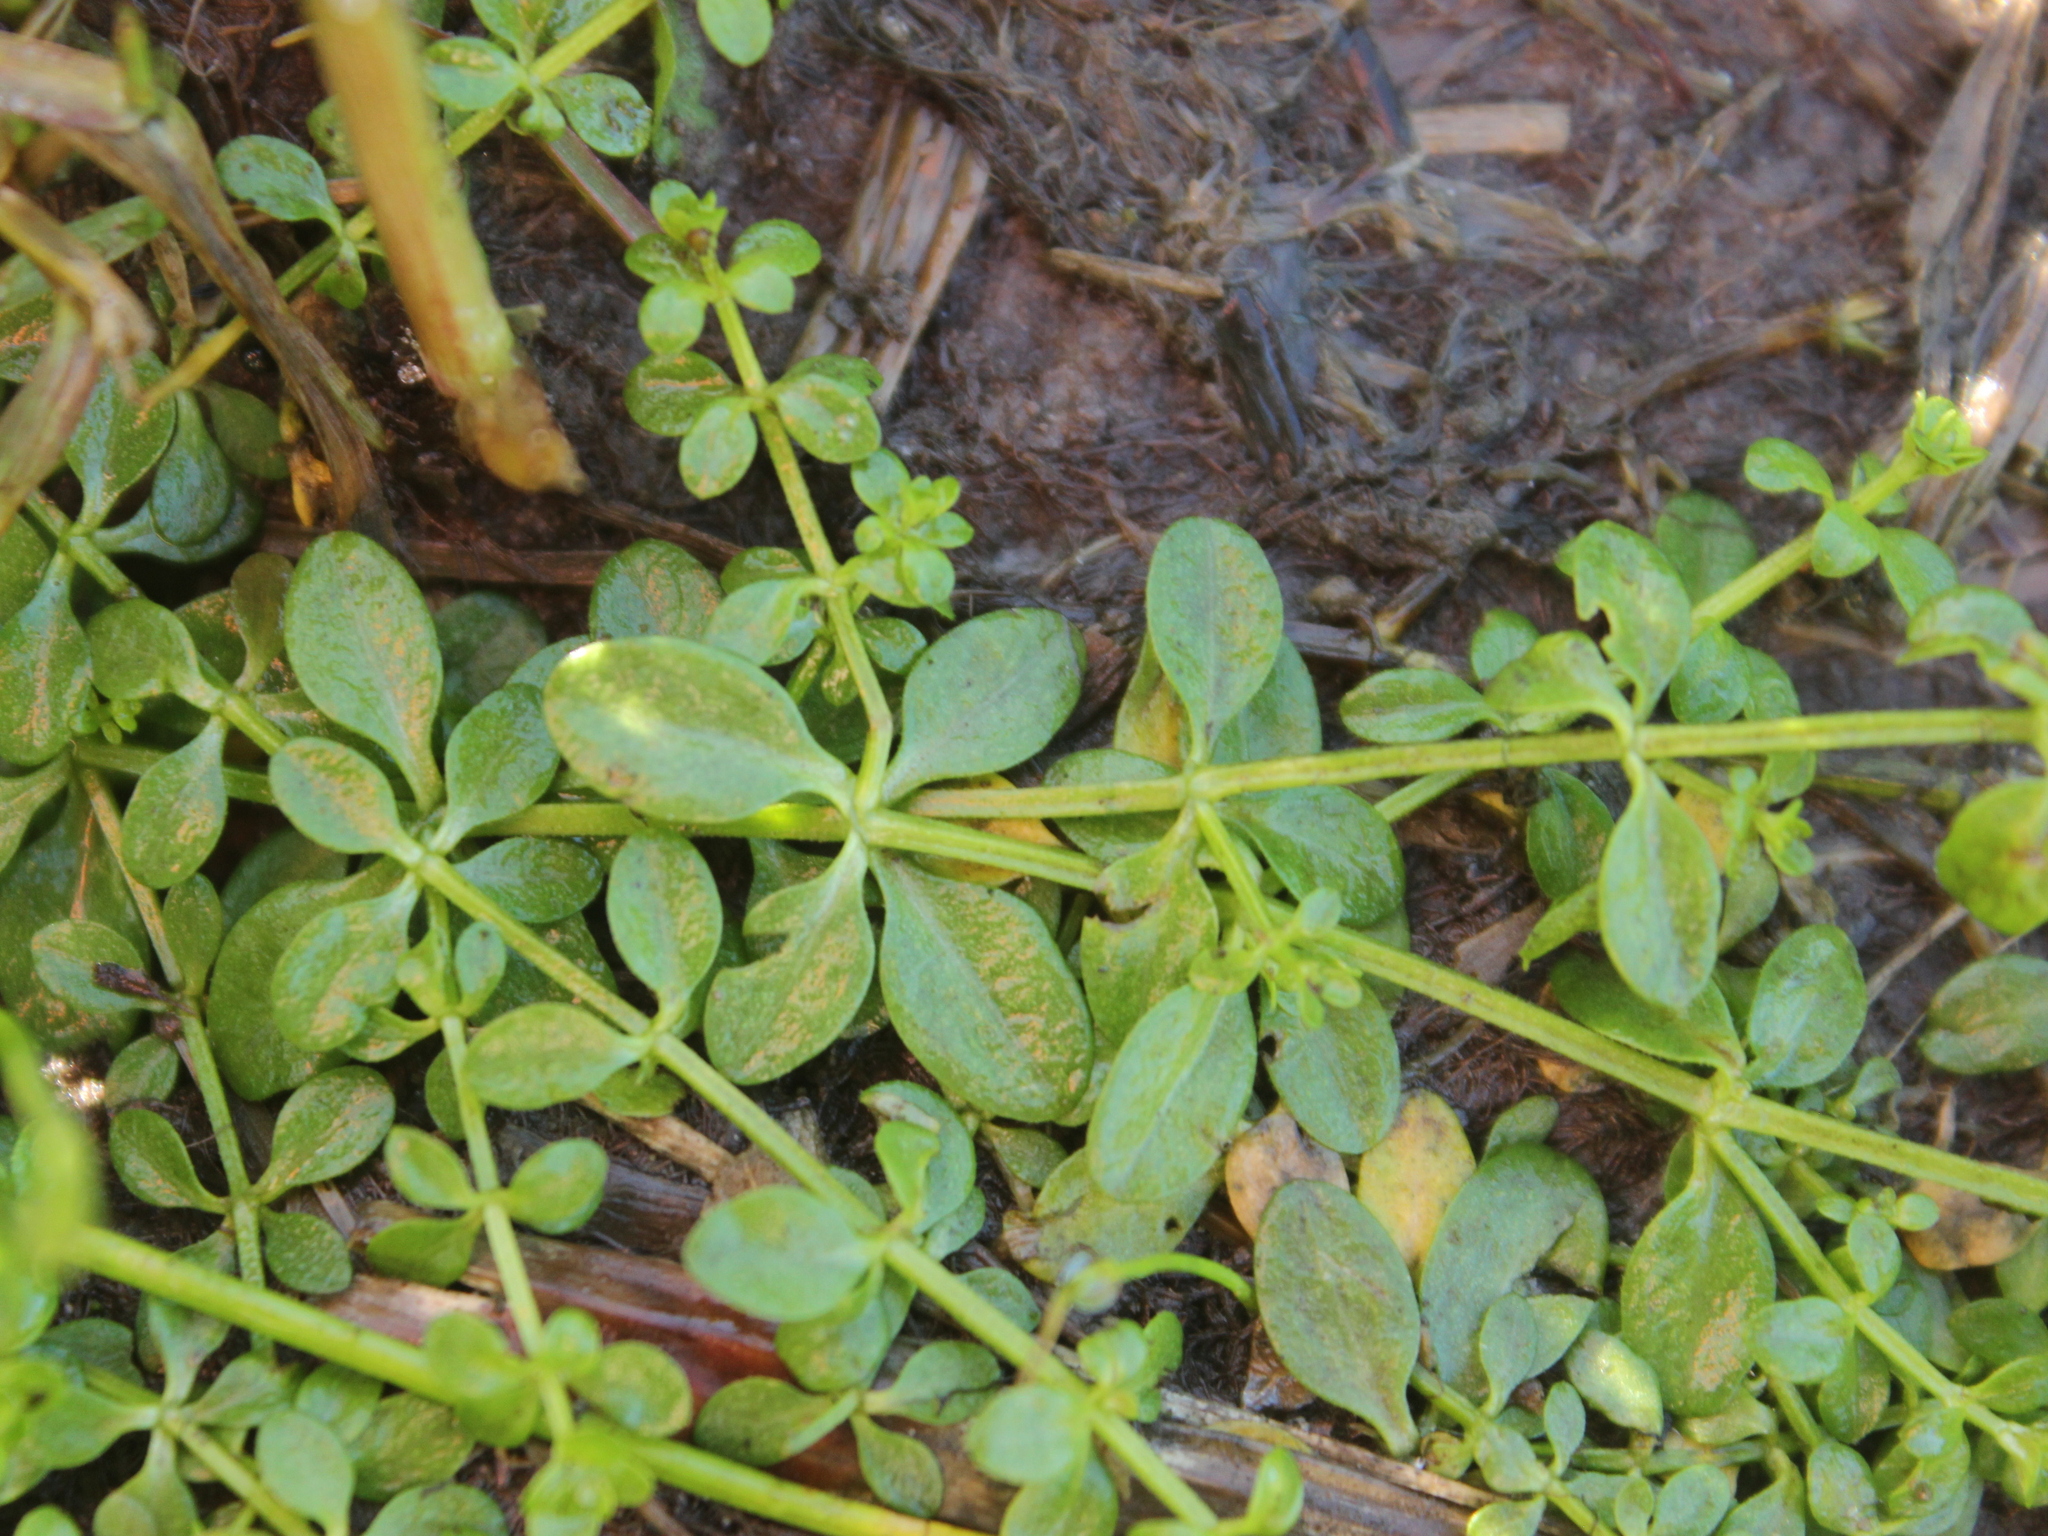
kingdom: Plantae
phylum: Tracheophyta
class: Magnoliopsida
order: Gentianales
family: Rubiaceae
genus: Galium
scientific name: Galium palustre
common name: Common marsh-bedstraw
